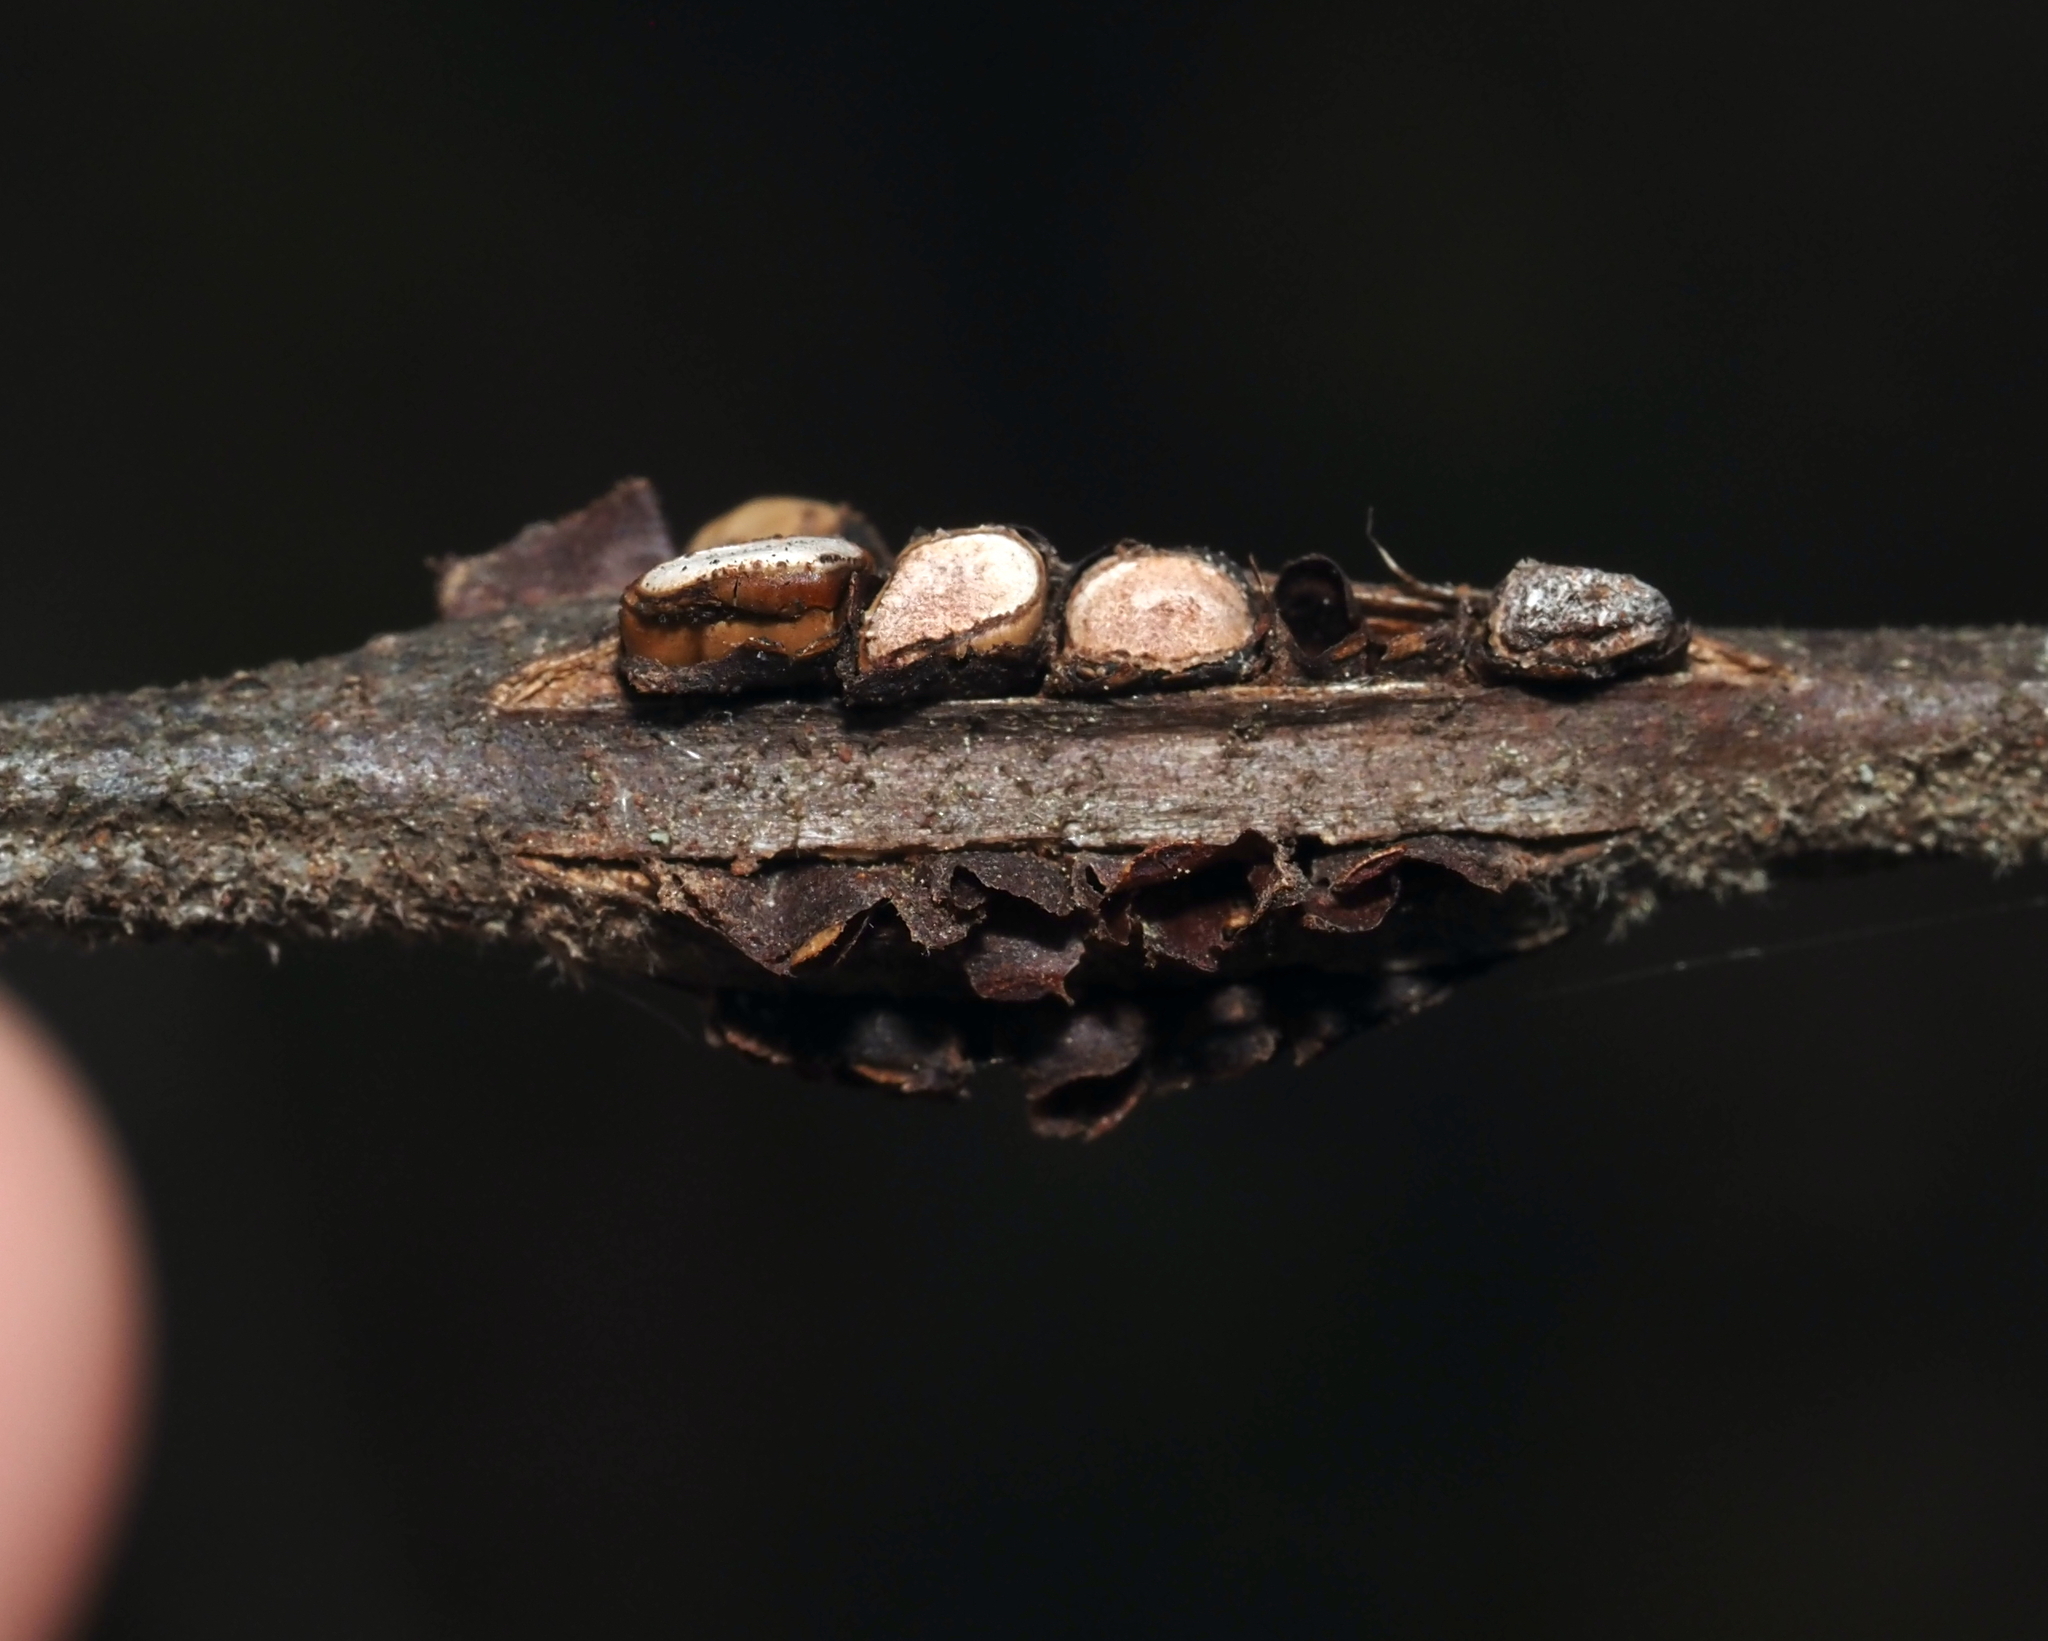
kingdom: Animalia
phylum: Arthropoda
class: Insecta
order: Hymenoptera
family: Cynipidae
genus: Callirhytis
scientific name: Callirhytis
